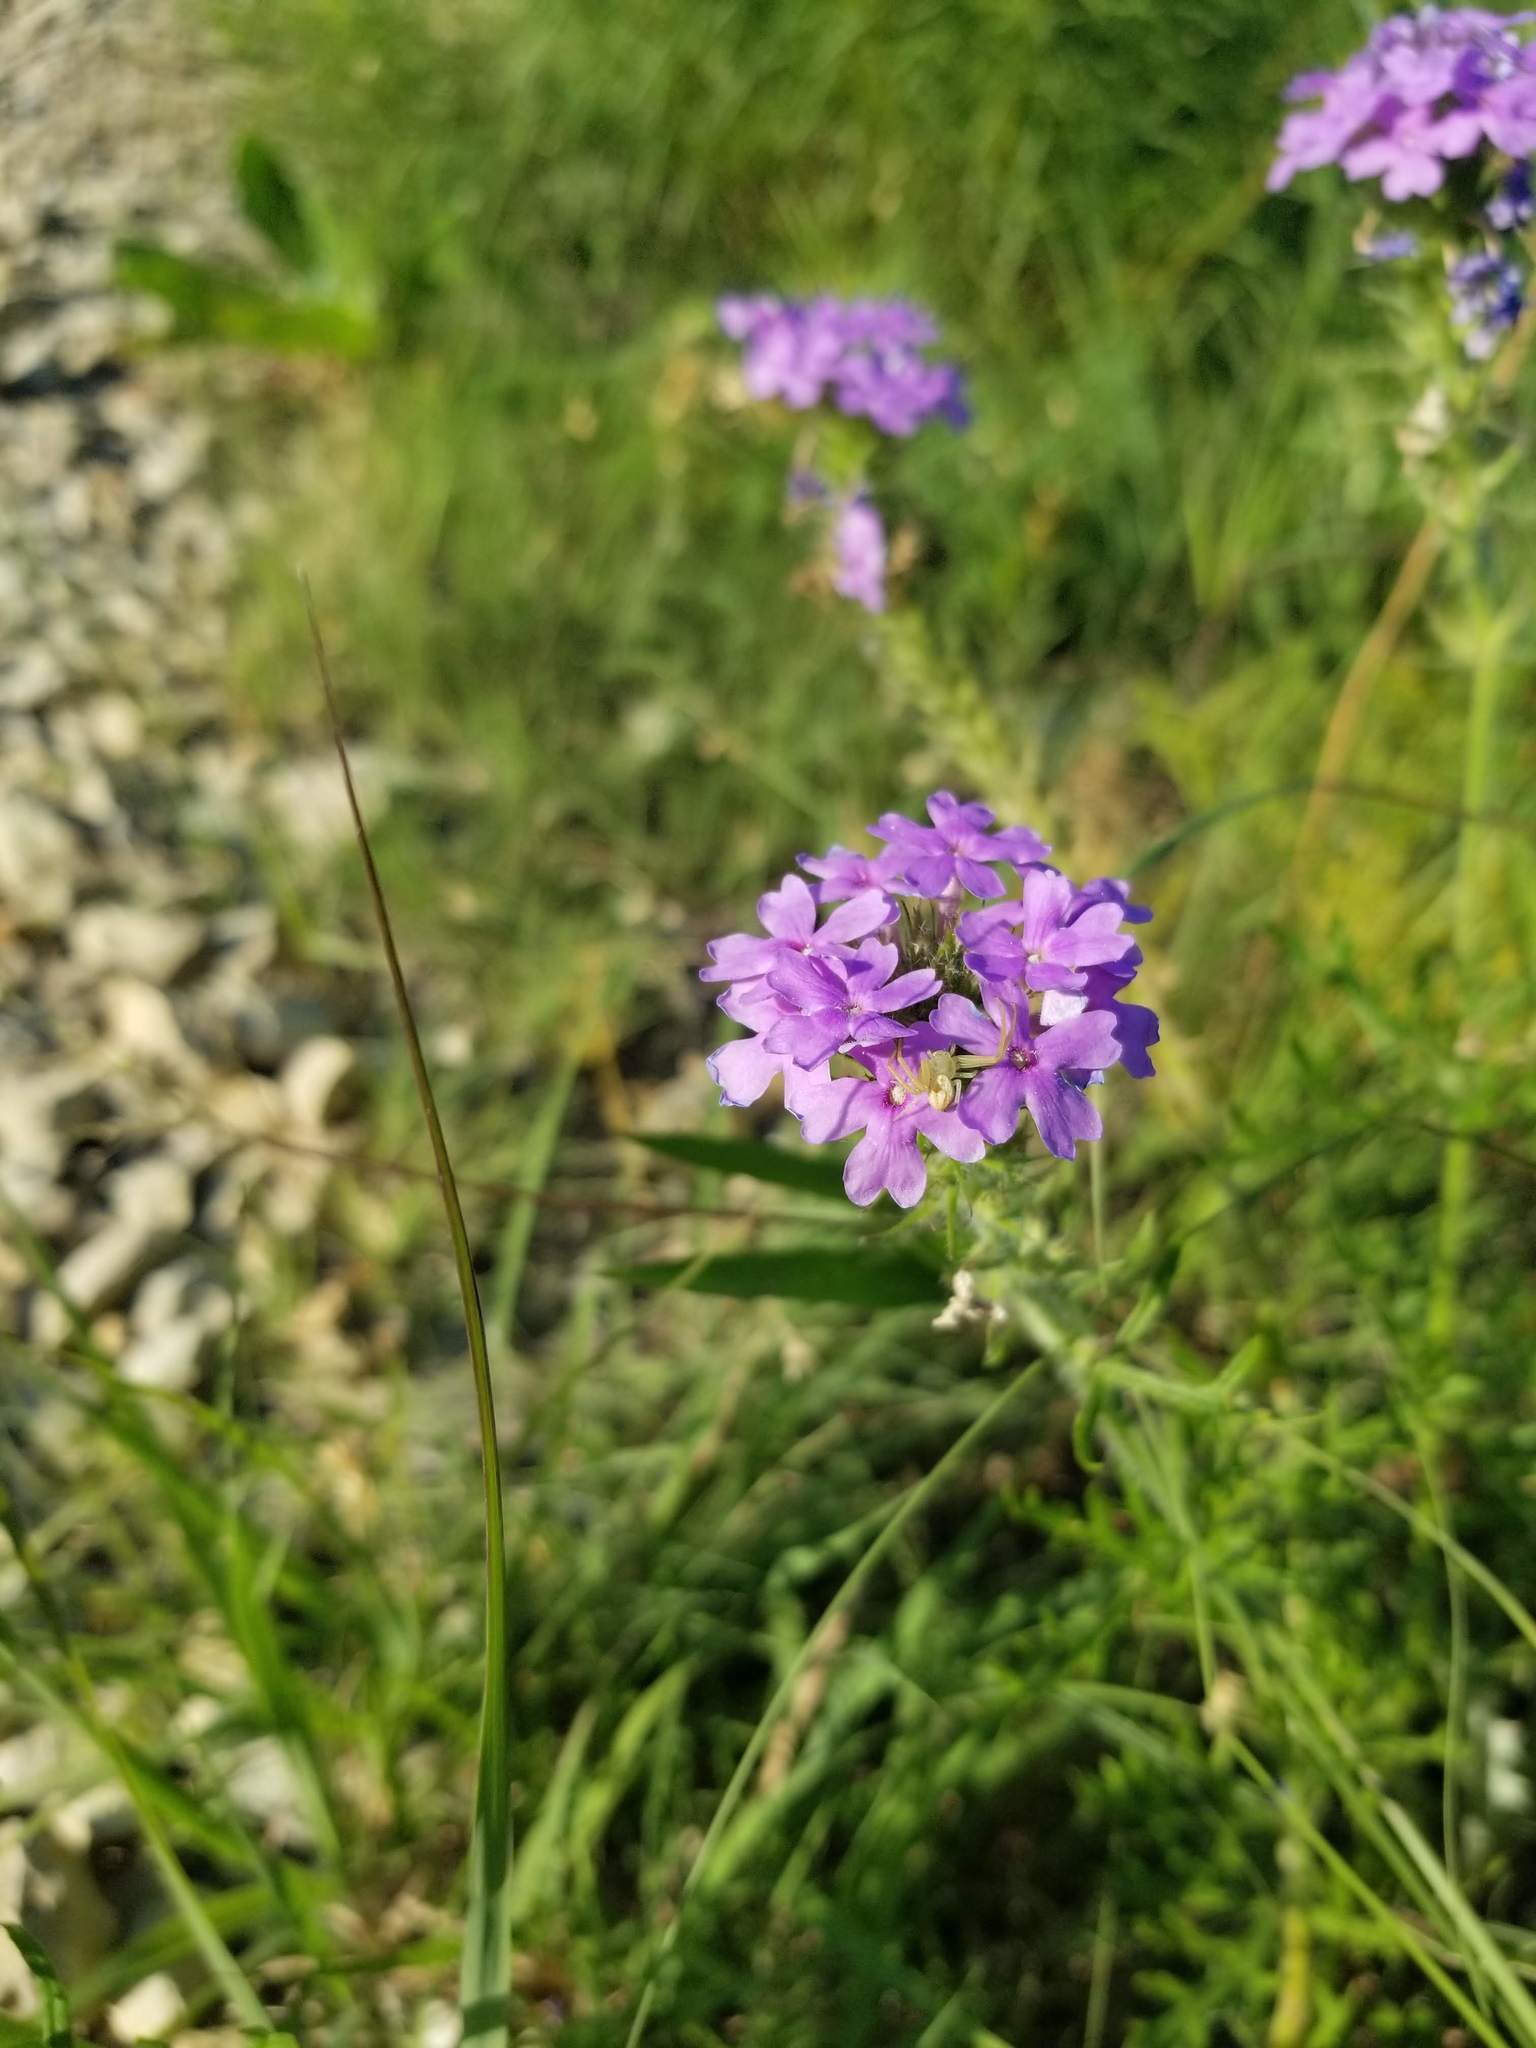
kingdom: Plantae
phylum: Tracheophyta
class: Magnoliopsida
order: Lamiales
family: Verbenaceae
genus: Verbena
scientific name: Verbena bipinnatifida
